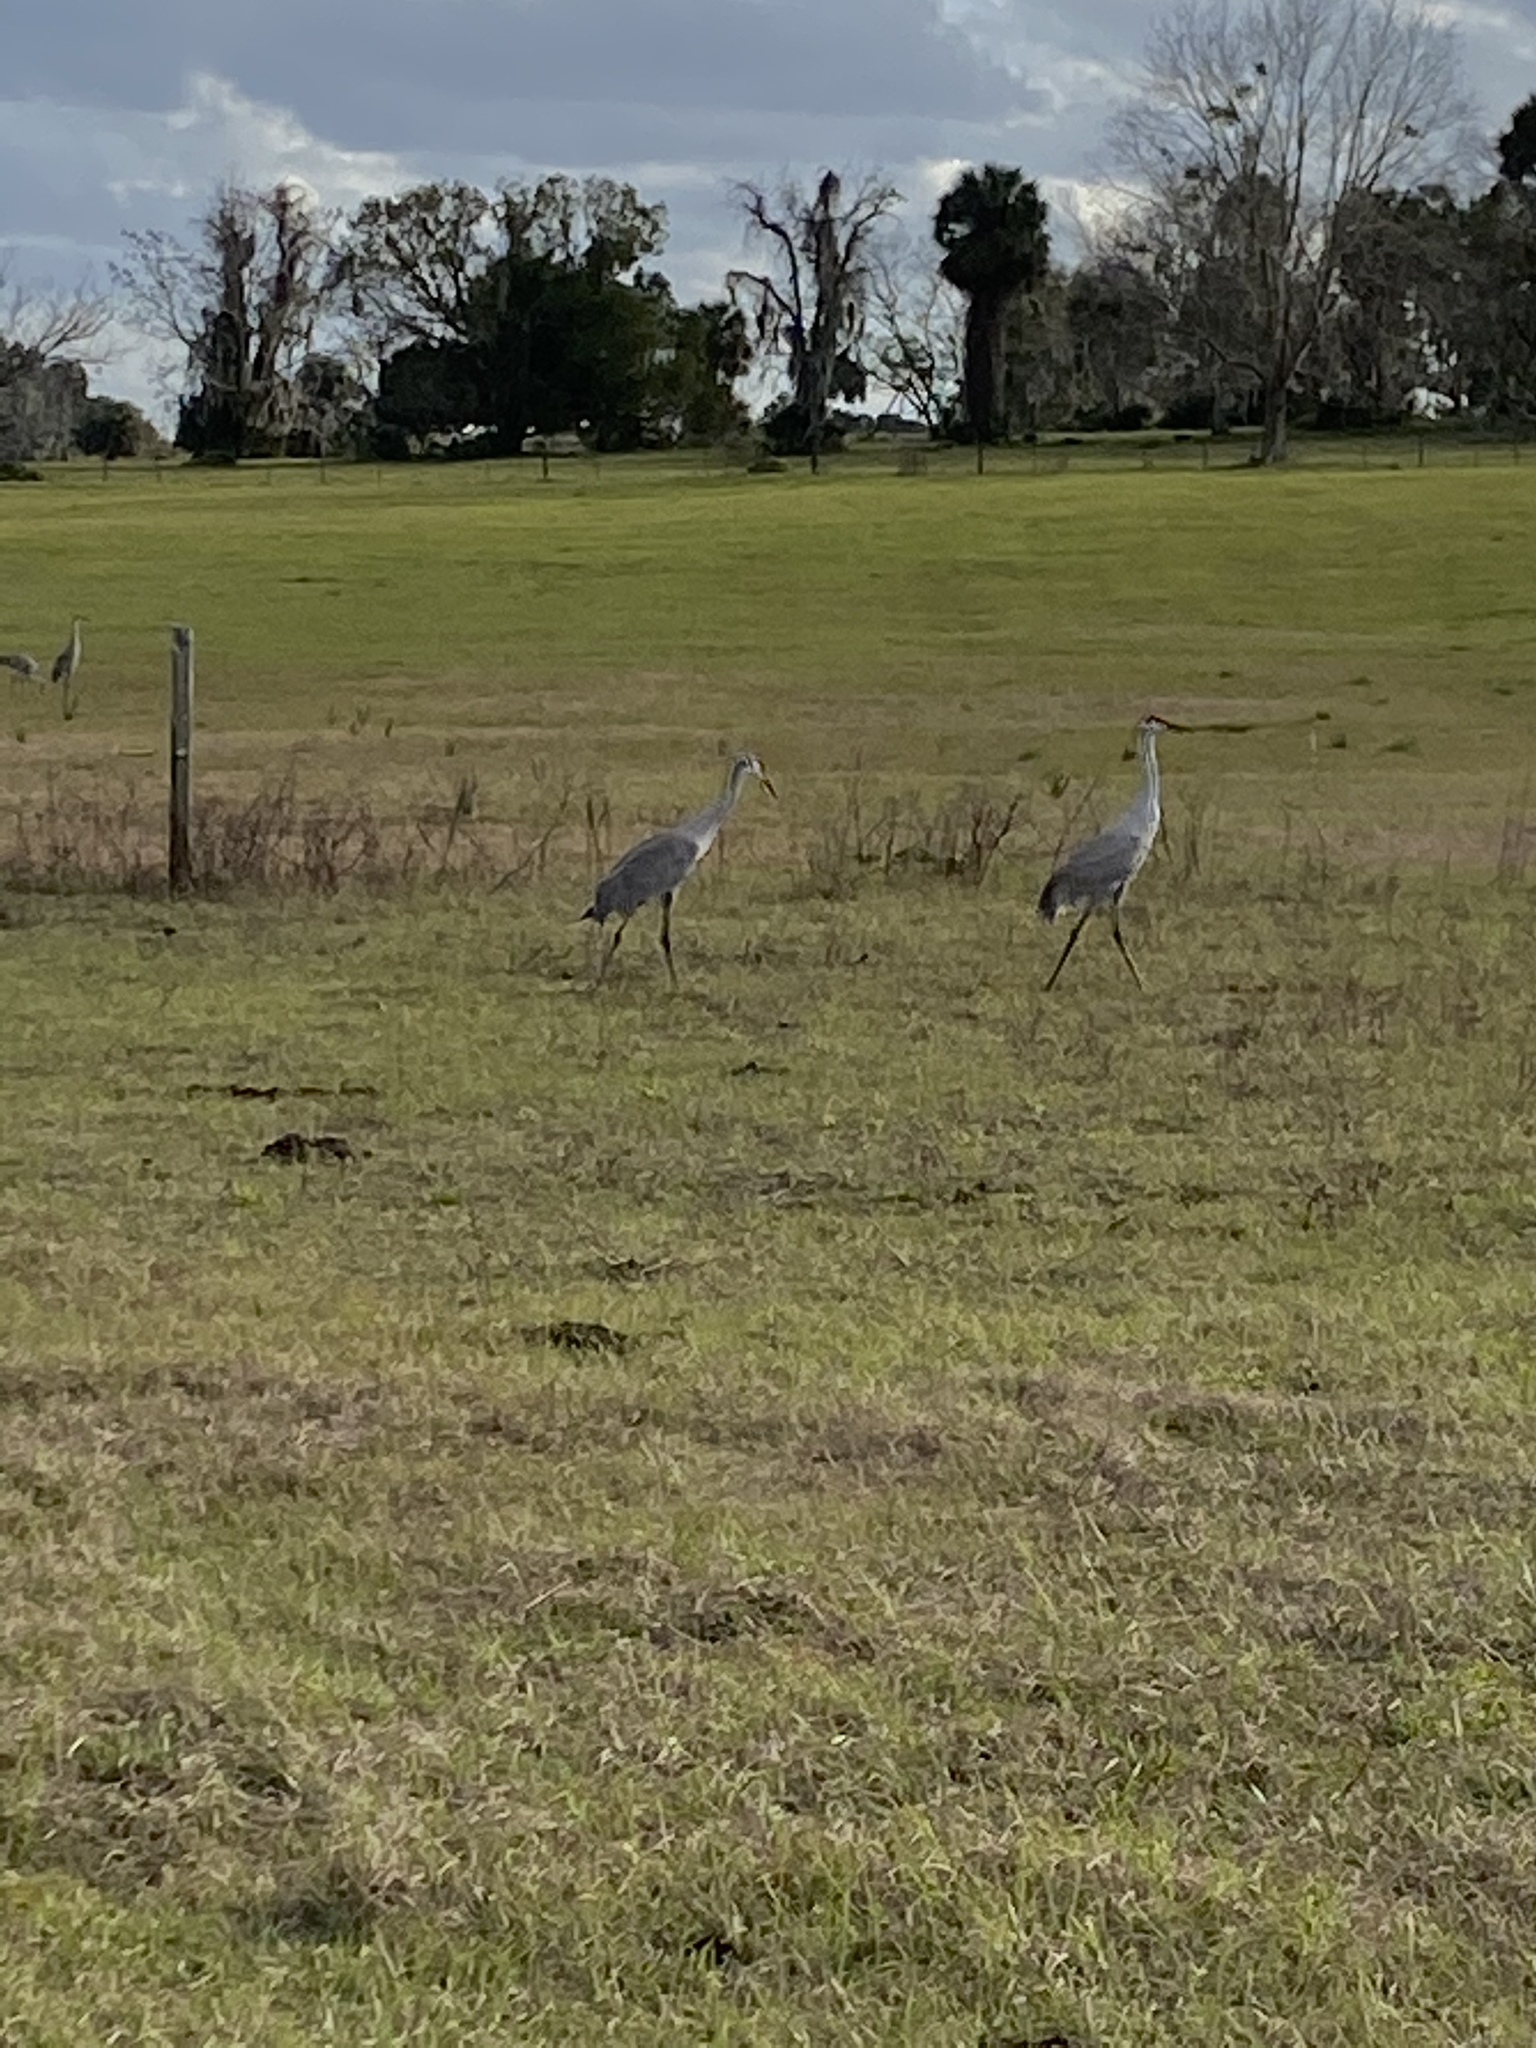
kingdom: Animalia
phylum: Chordata
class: Aves
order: Gruiformes
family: Gruidae
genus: Grus
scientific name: Grus canadensis
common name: Sandhill crane
